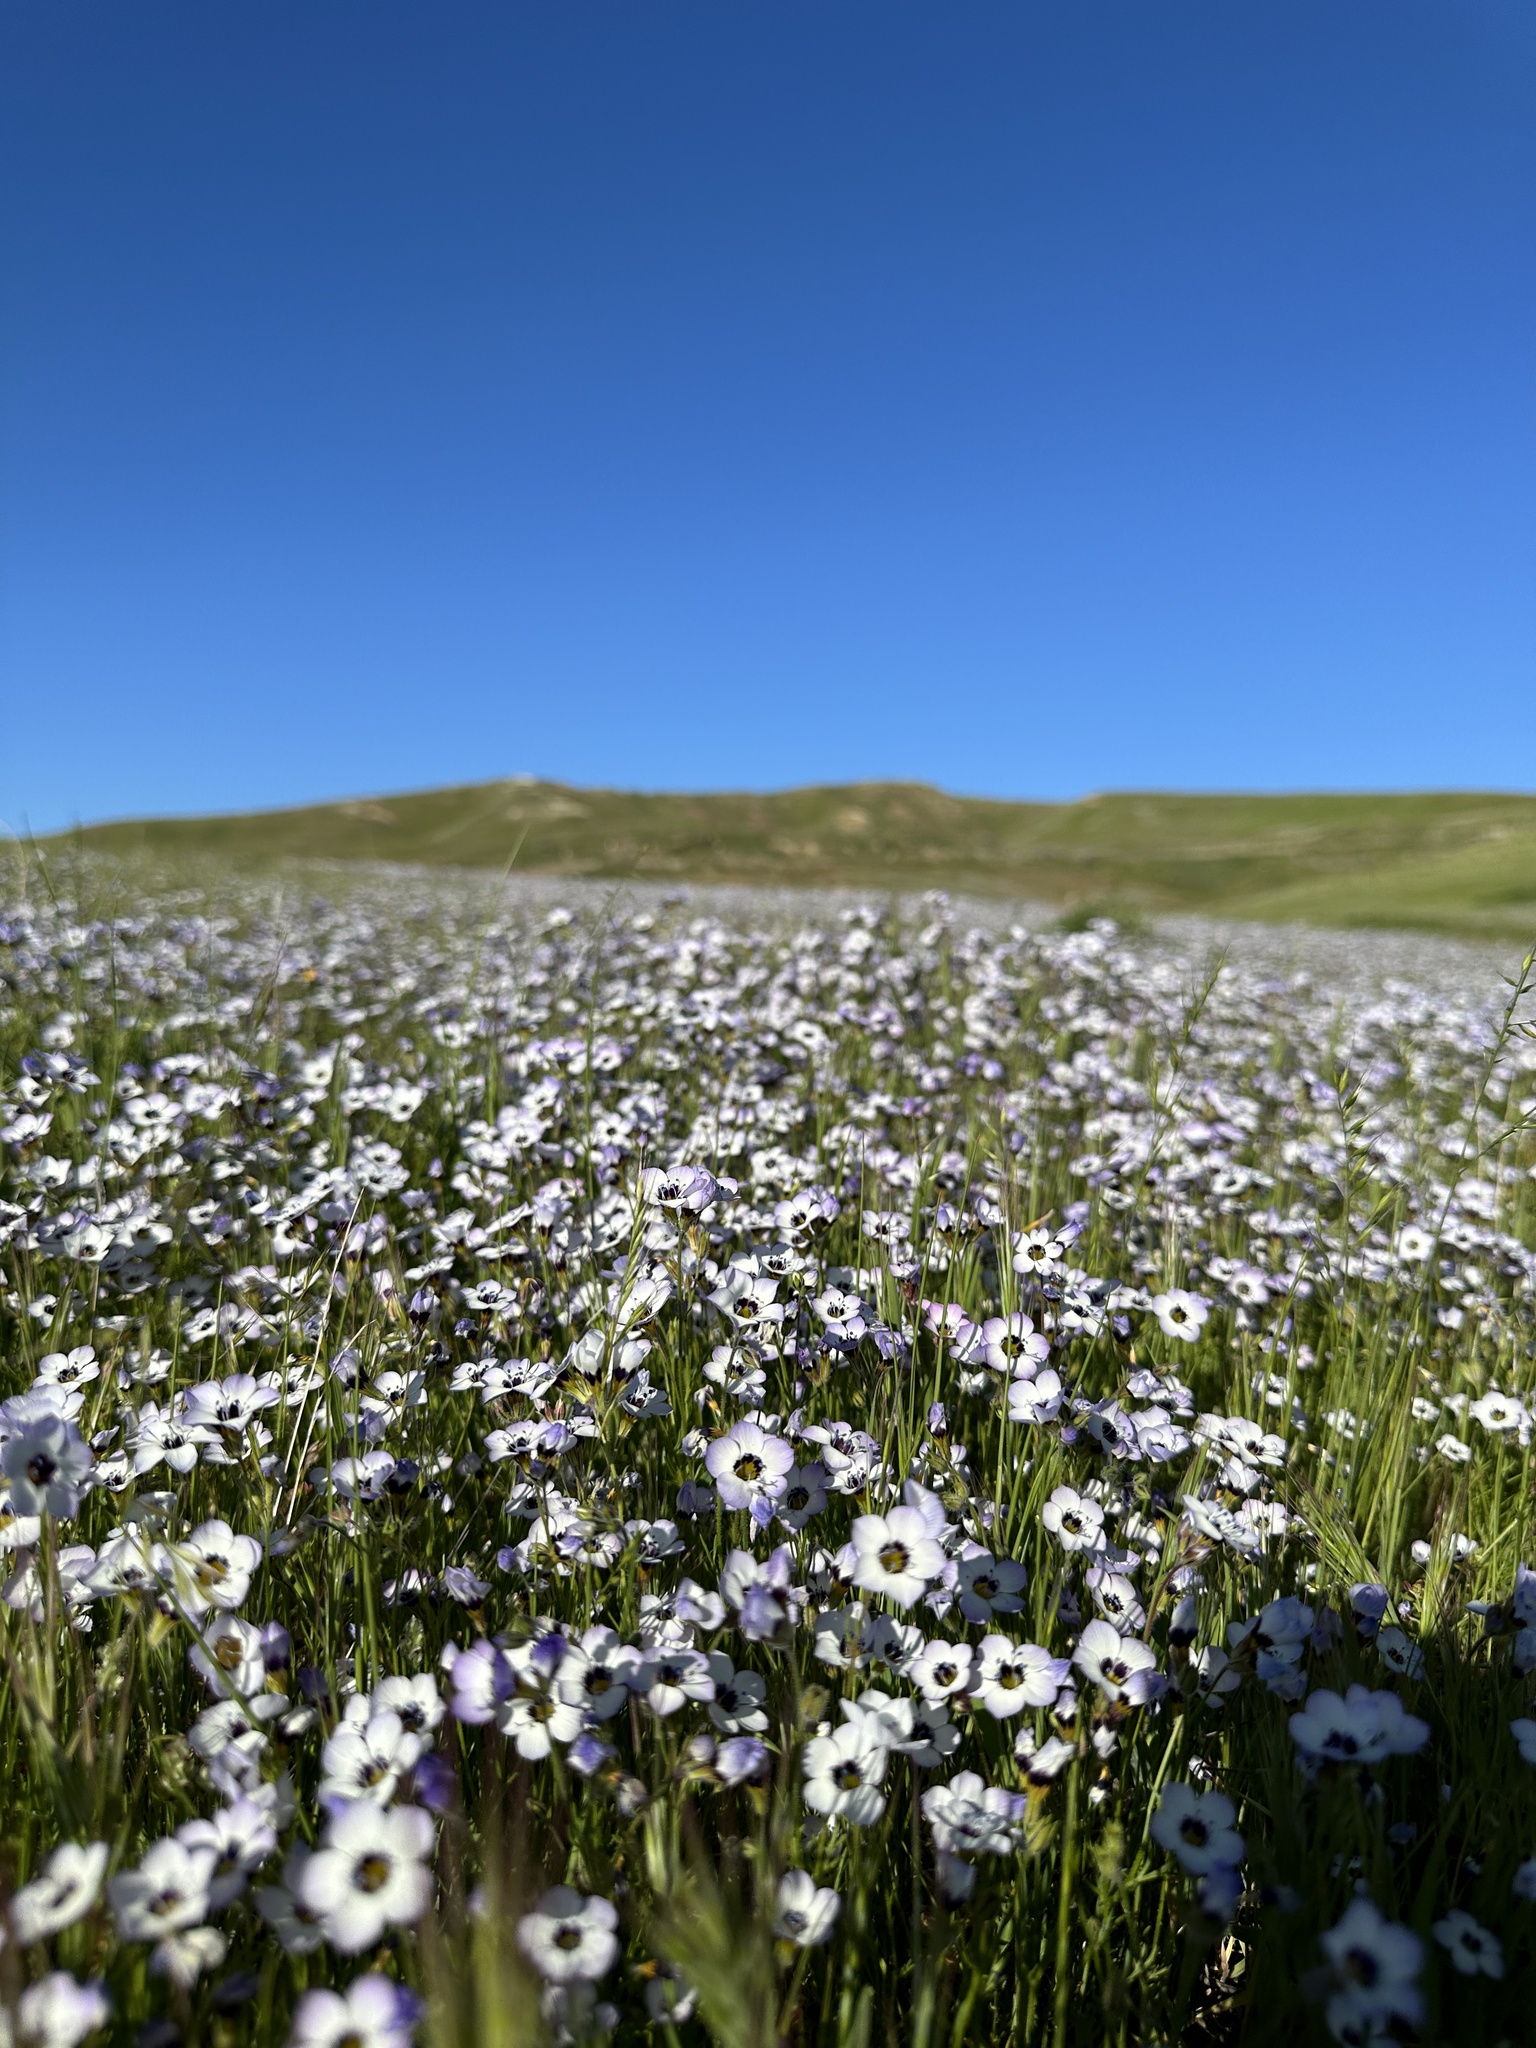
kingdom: Plantae
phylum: Tracheophyta
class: Magnoliopsida
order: Ericales
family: Polemoniaceae
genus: Gilia
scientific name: Gilia tricolor
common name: Bird's-eyes
